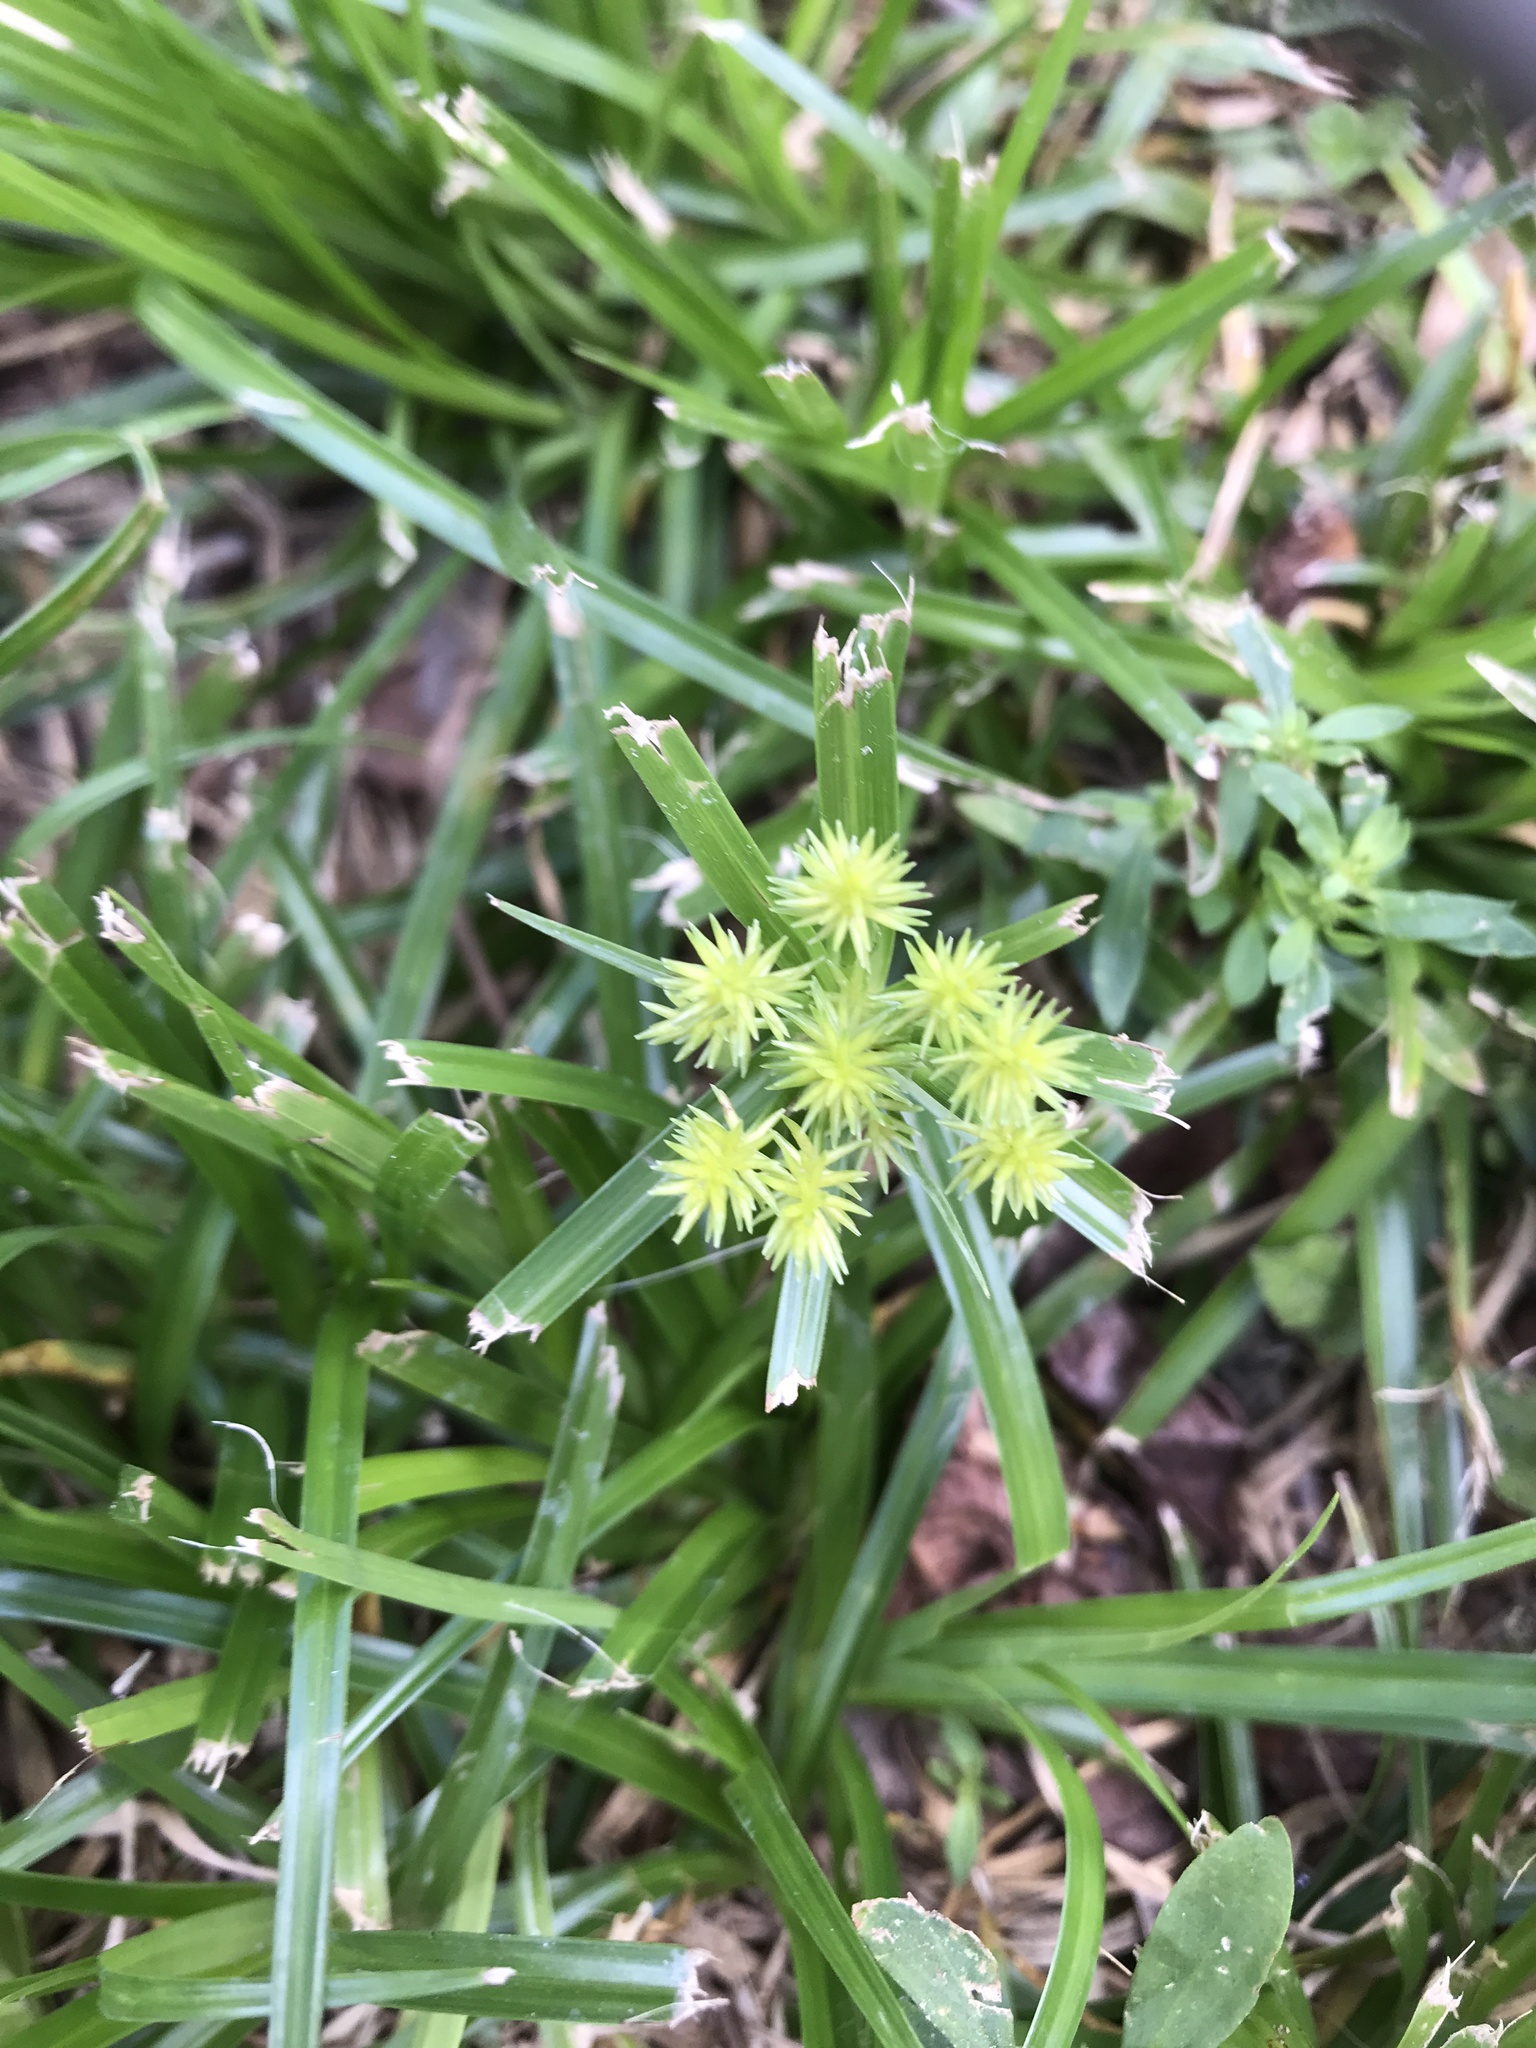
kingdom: Plantae
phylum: Tracheophyta
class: Liliopsida
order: Poales
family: Cyperaceae
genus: Cyperus
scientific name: Cyperus croceus
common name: Baldwin's flatsedge
